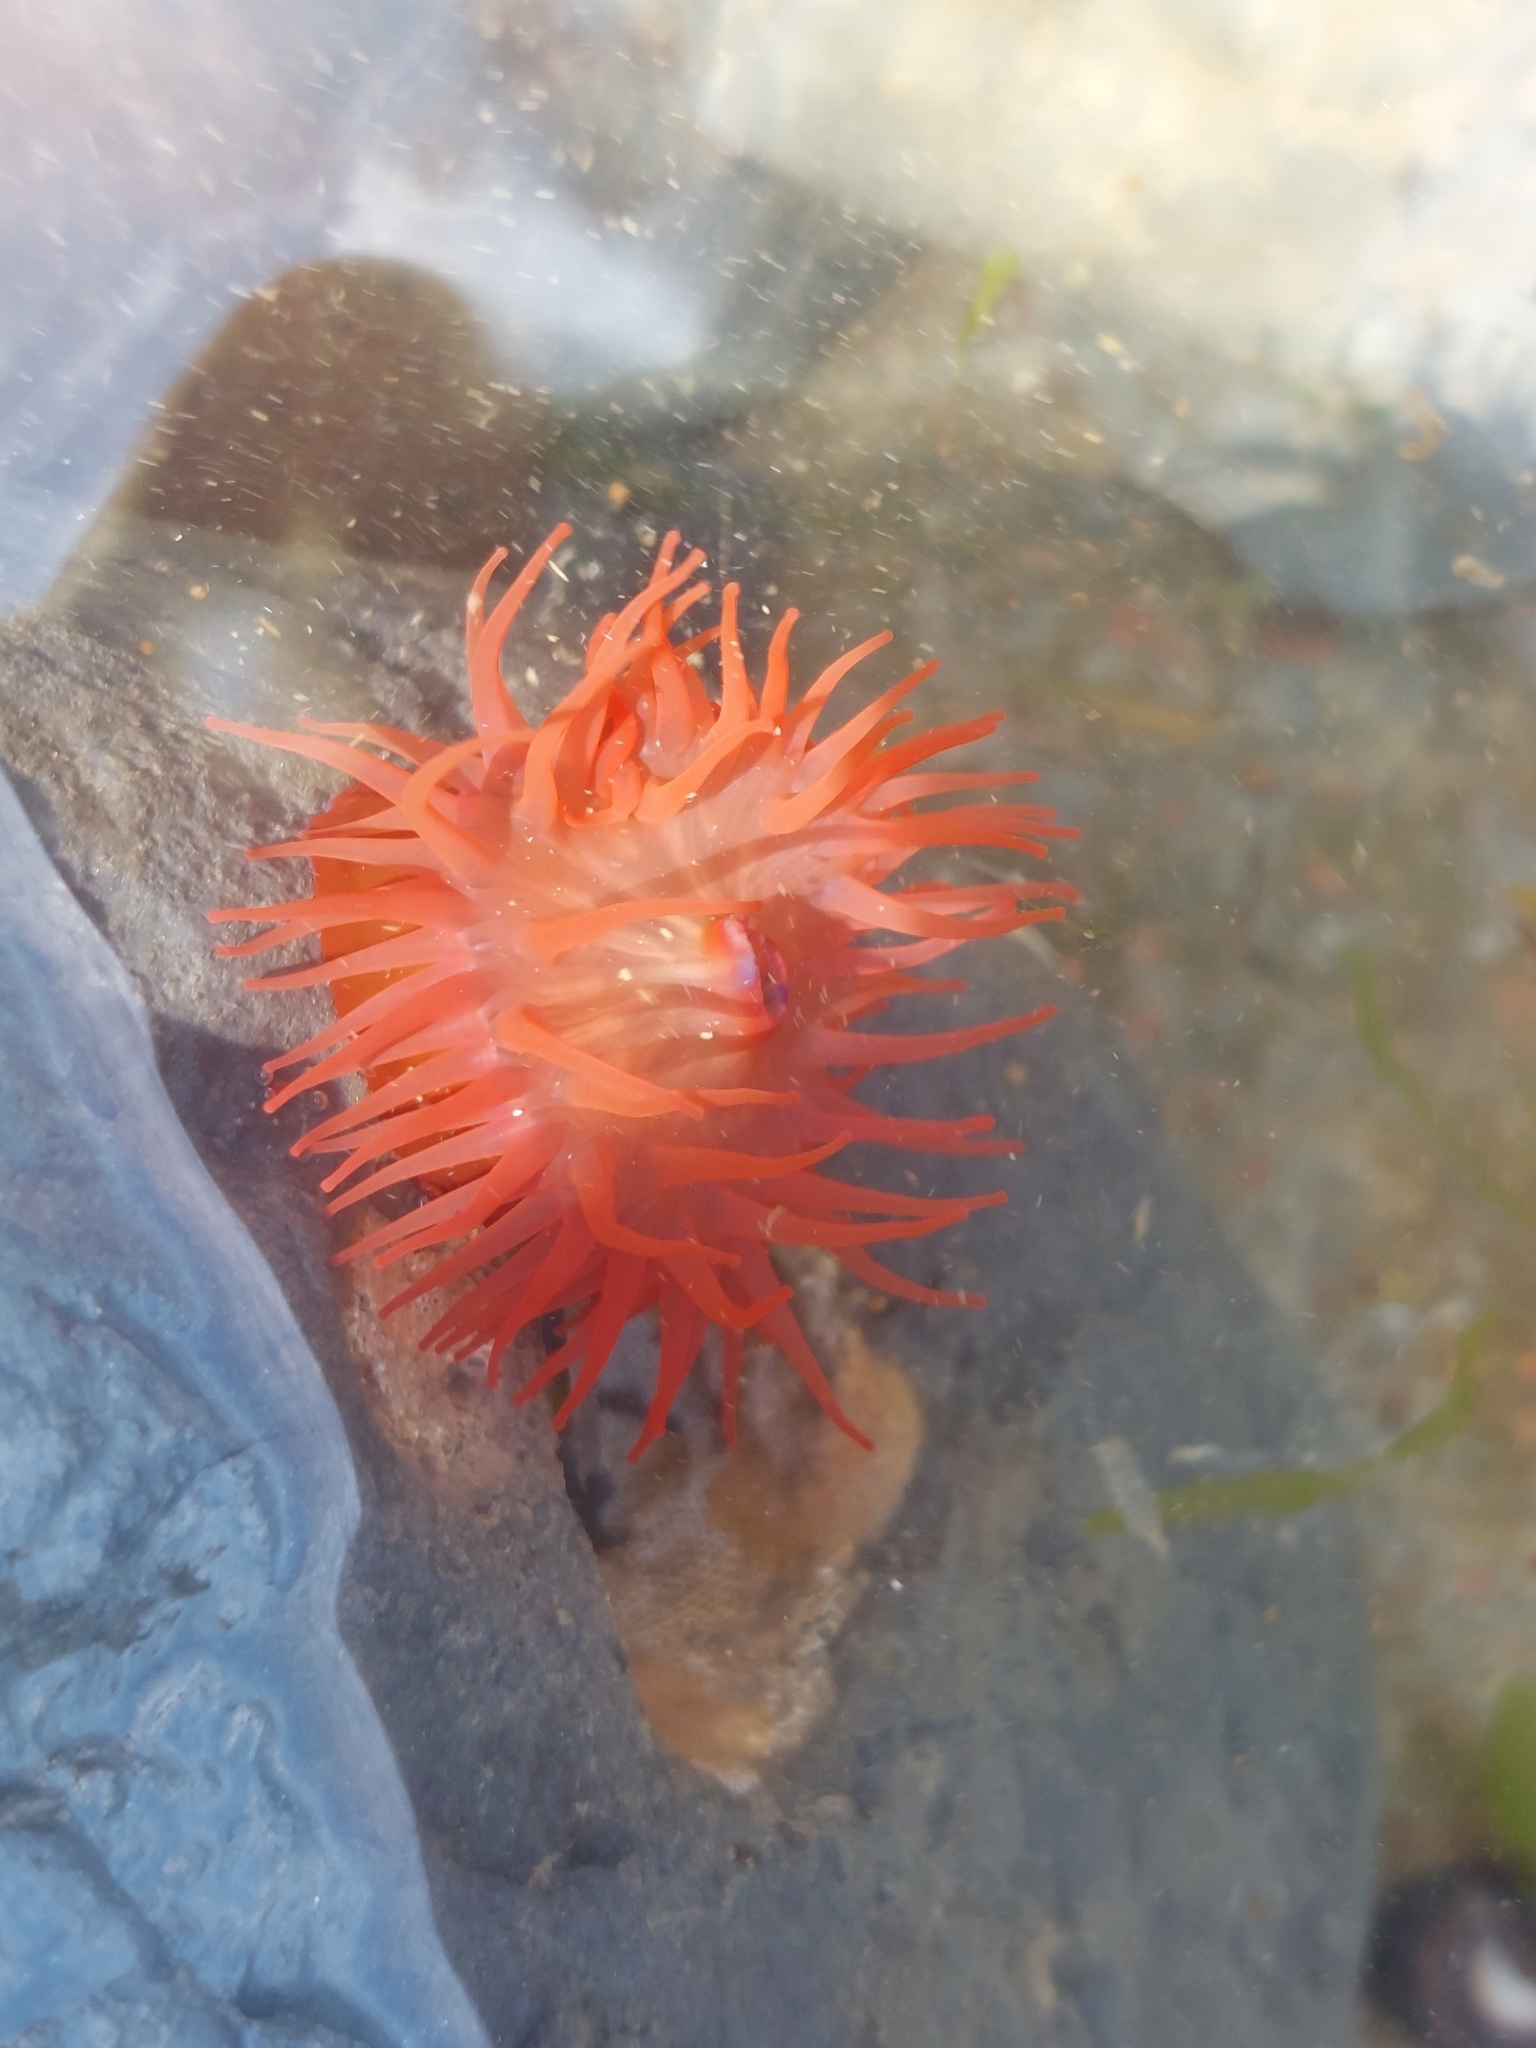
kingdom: Animalia
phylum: Cnidaria
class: Anthozoa
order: Actiniaria
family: Actiniidae
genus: Actinia
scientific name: Actinia equina
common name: Beadlet anemone
